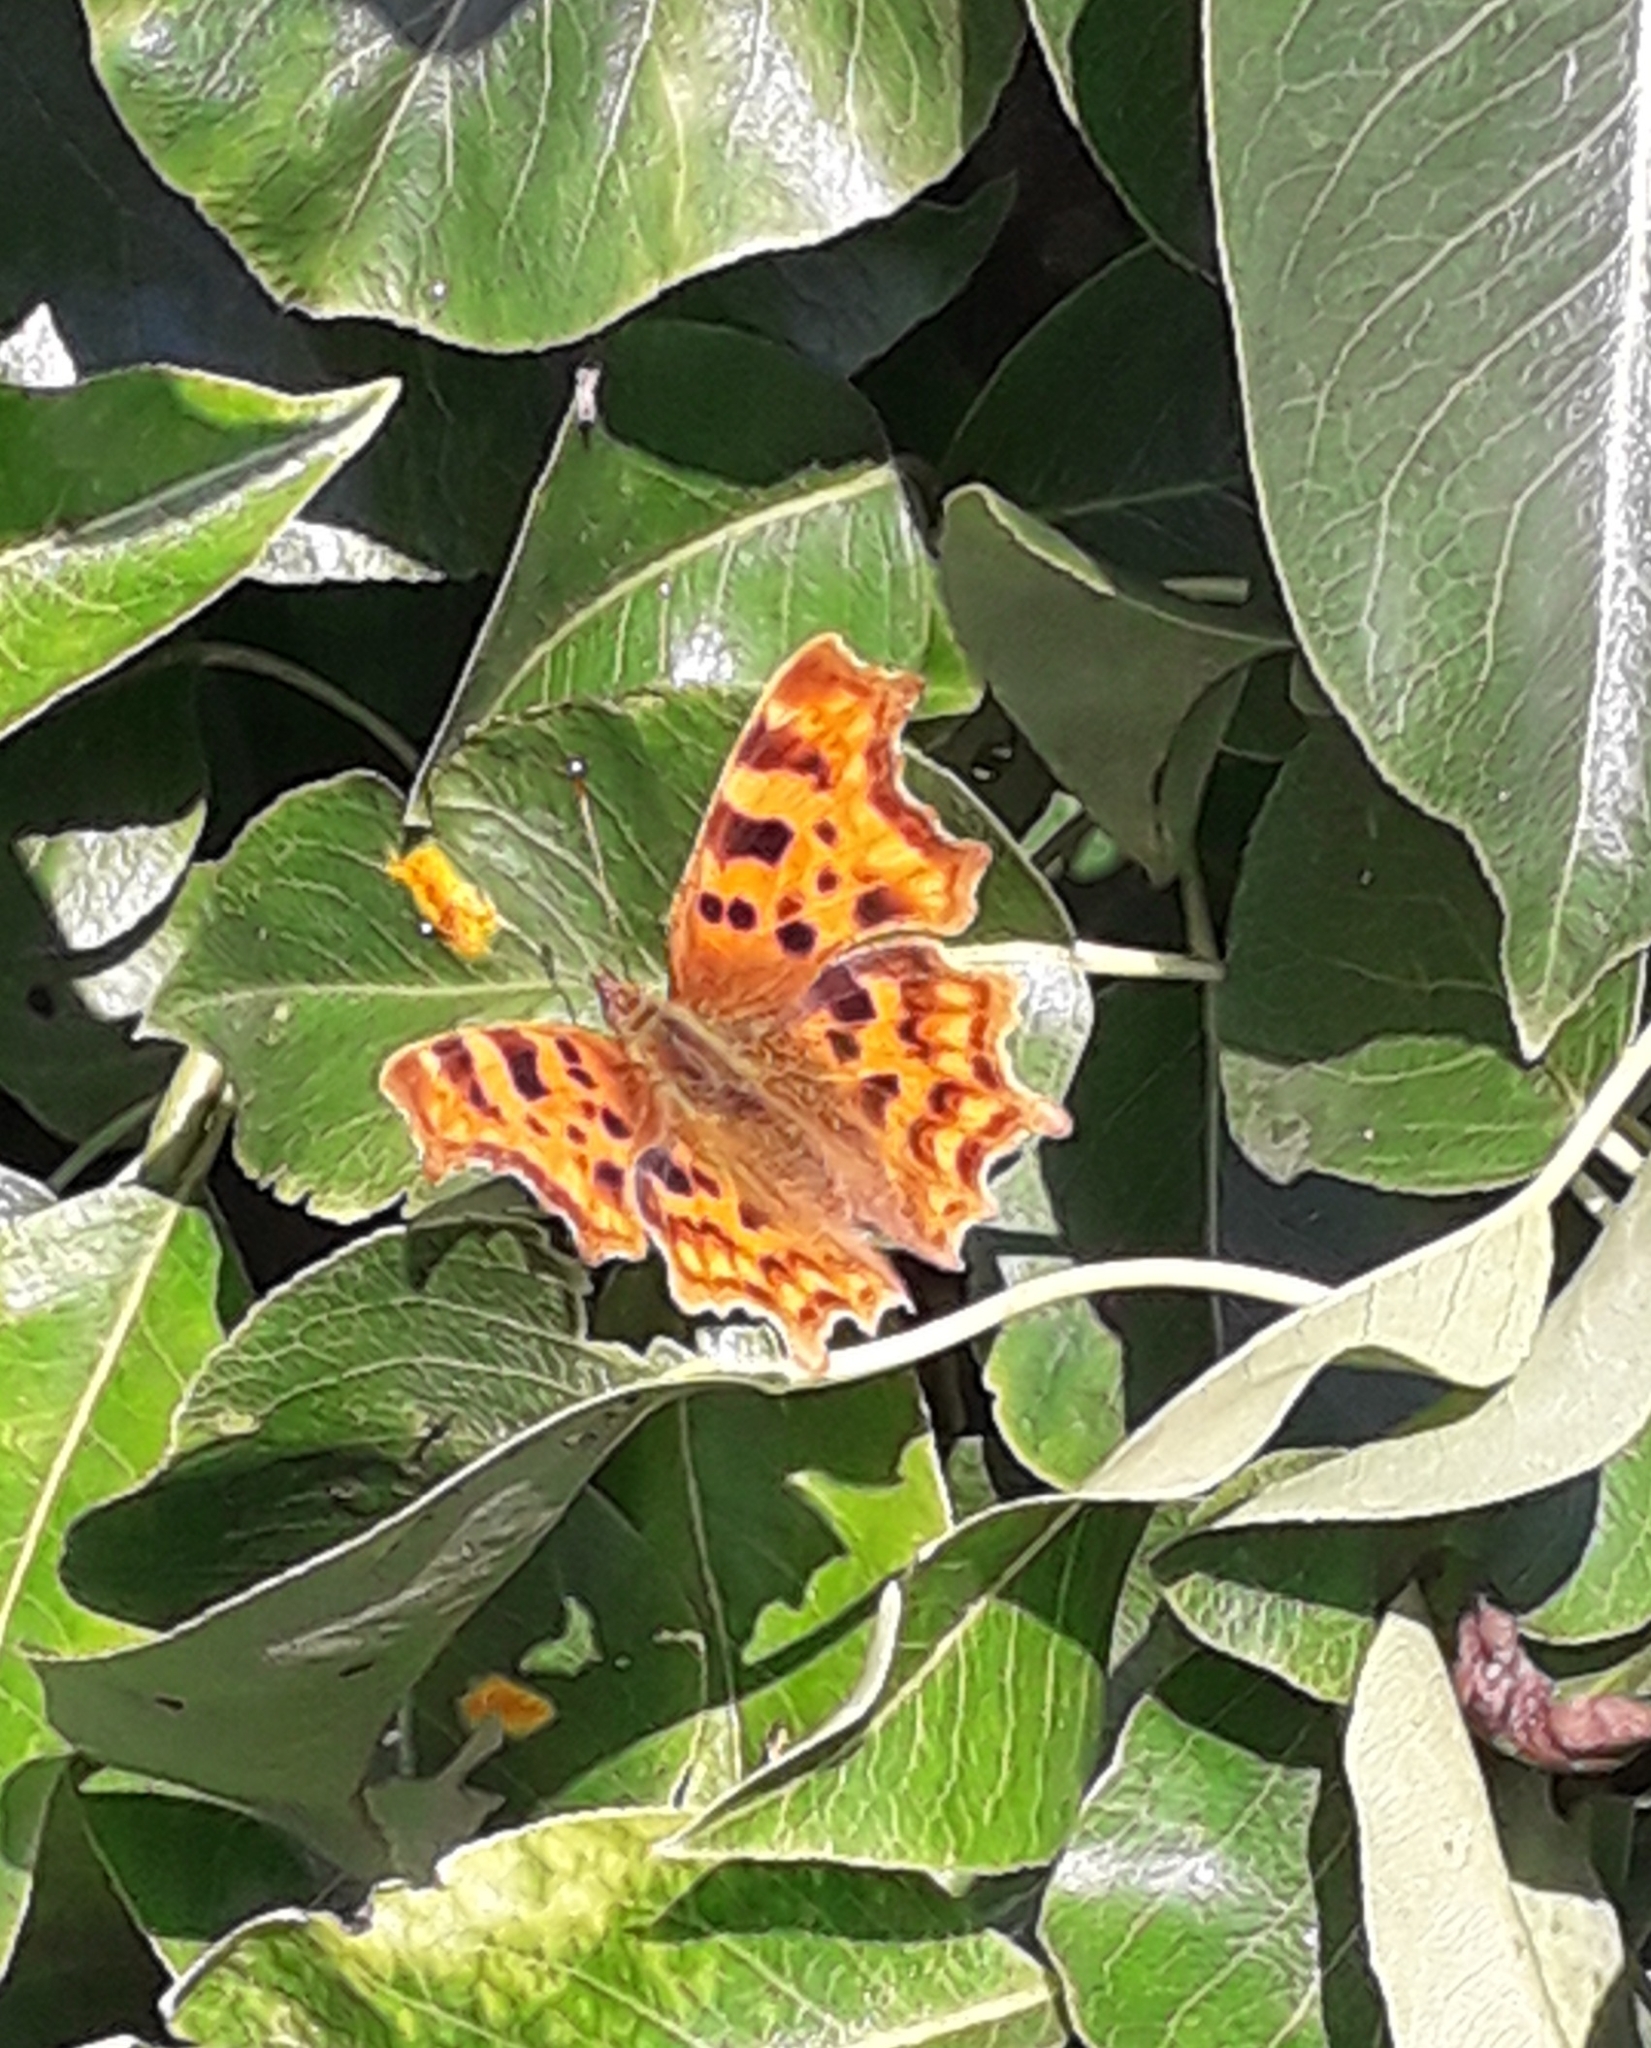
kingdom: Animalia
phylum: Arthropoda
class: Insecta
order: Lepidoptera
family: Nymphalidae
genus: Polygonia
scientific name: Polygonia c-album
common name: Comma
